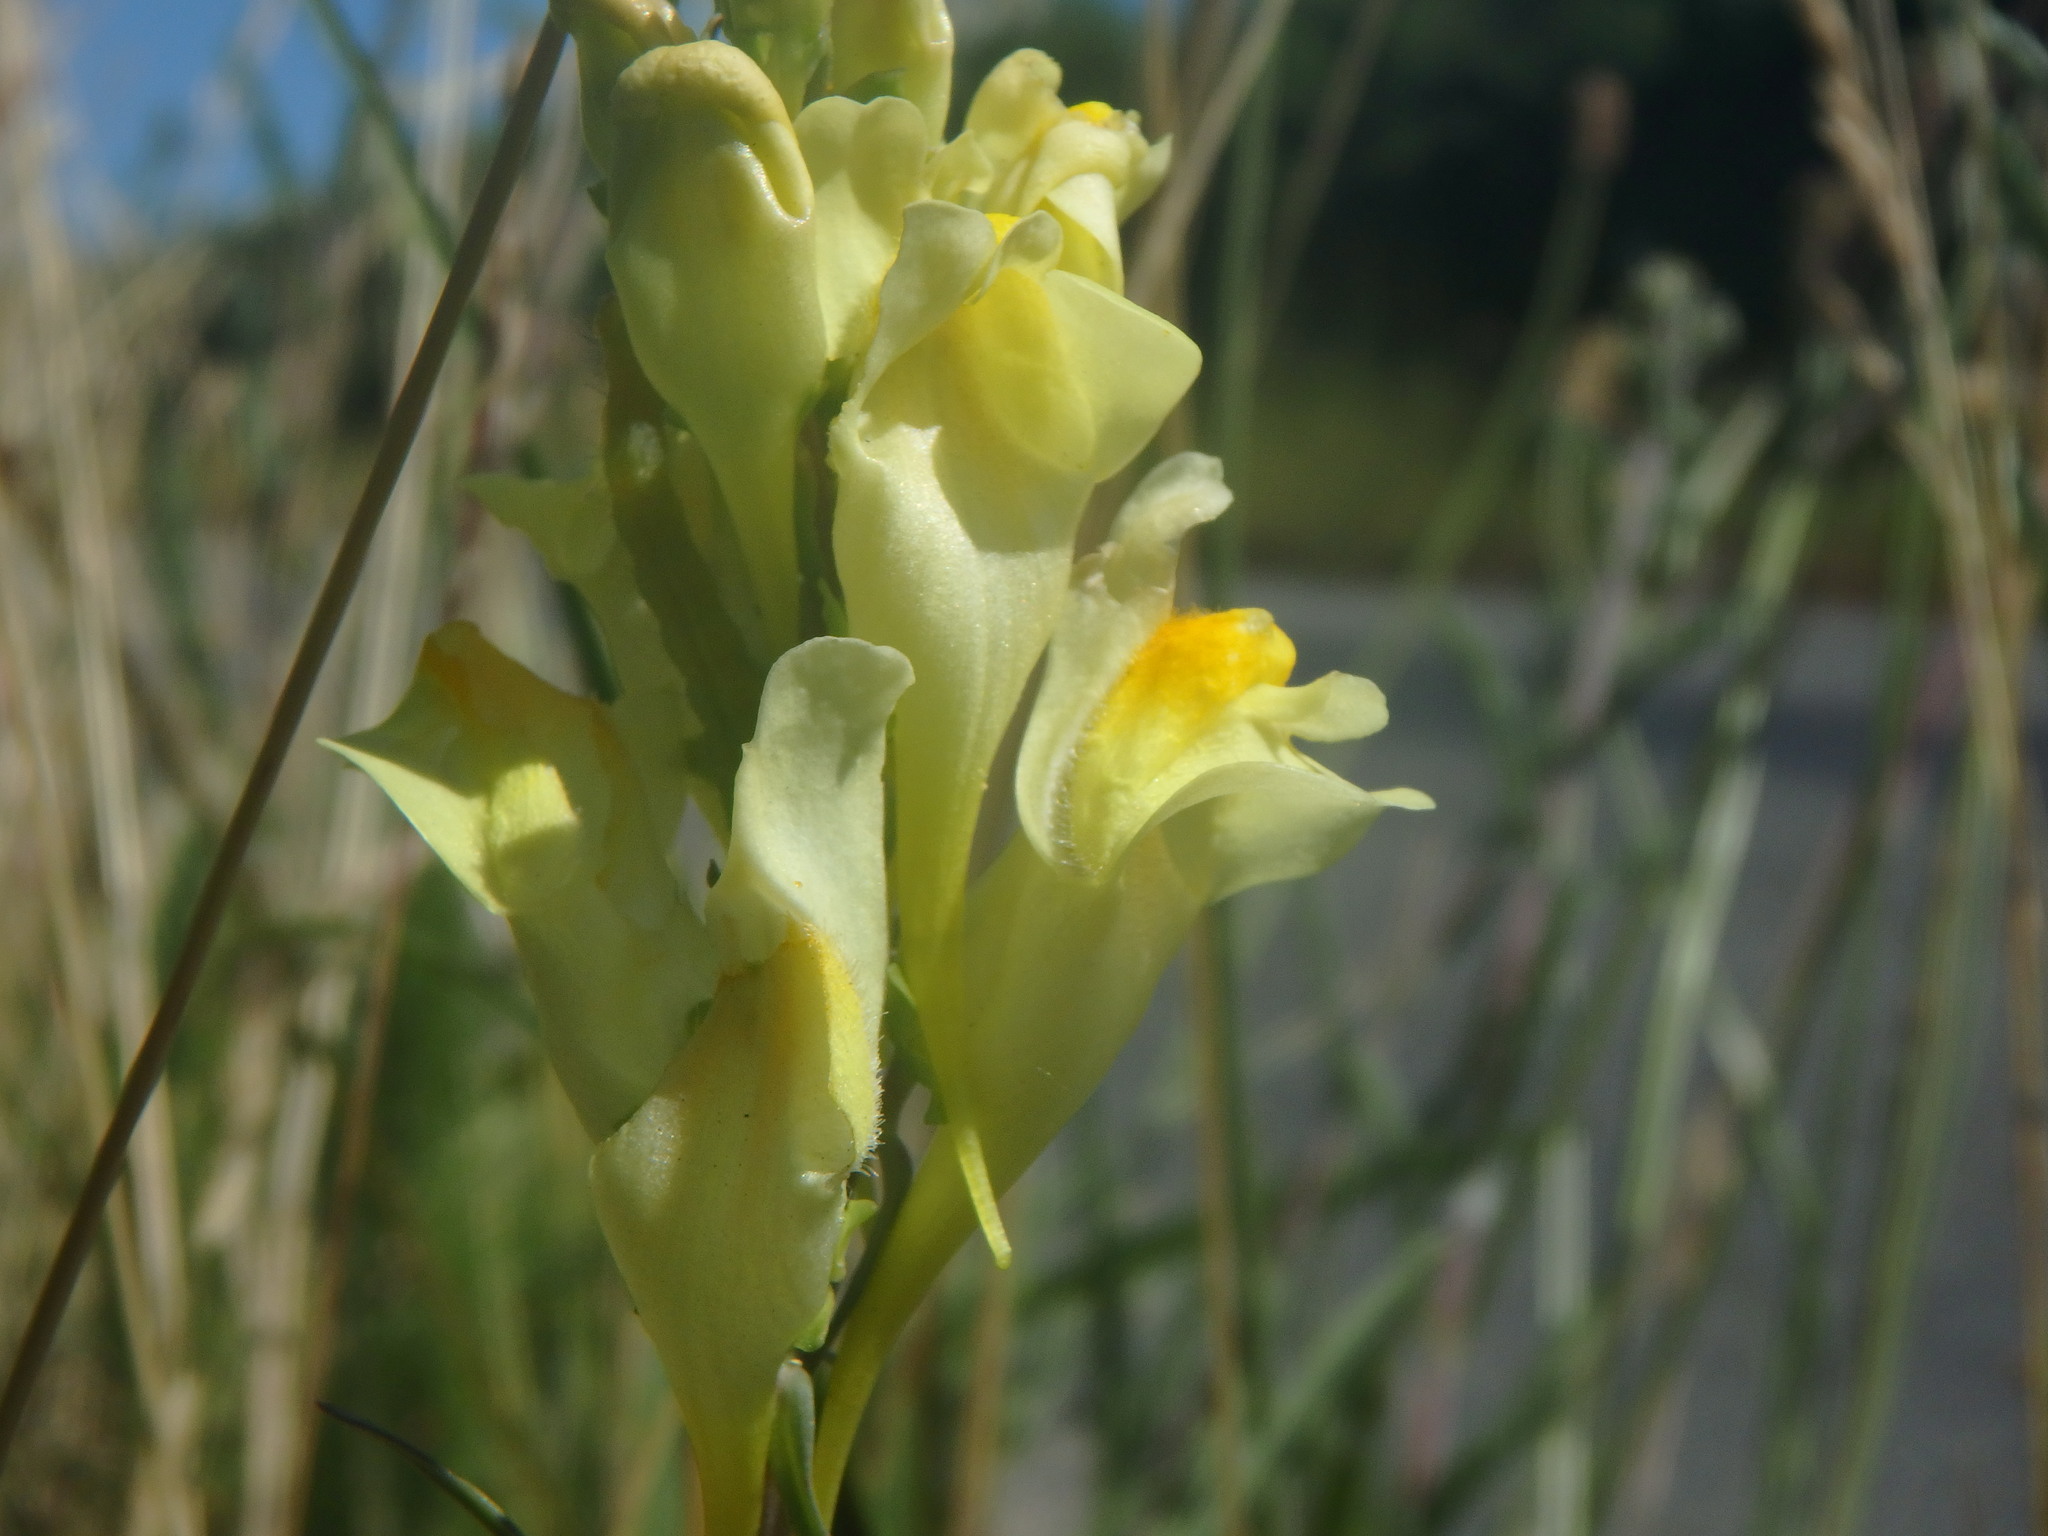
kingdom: Plantae
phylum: Tracheophyta
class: Magnoliopsida
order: Lamiales
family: Plantaginaceae
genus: Linaria
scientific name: Linaria vulgaris
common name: Butter and eggs
